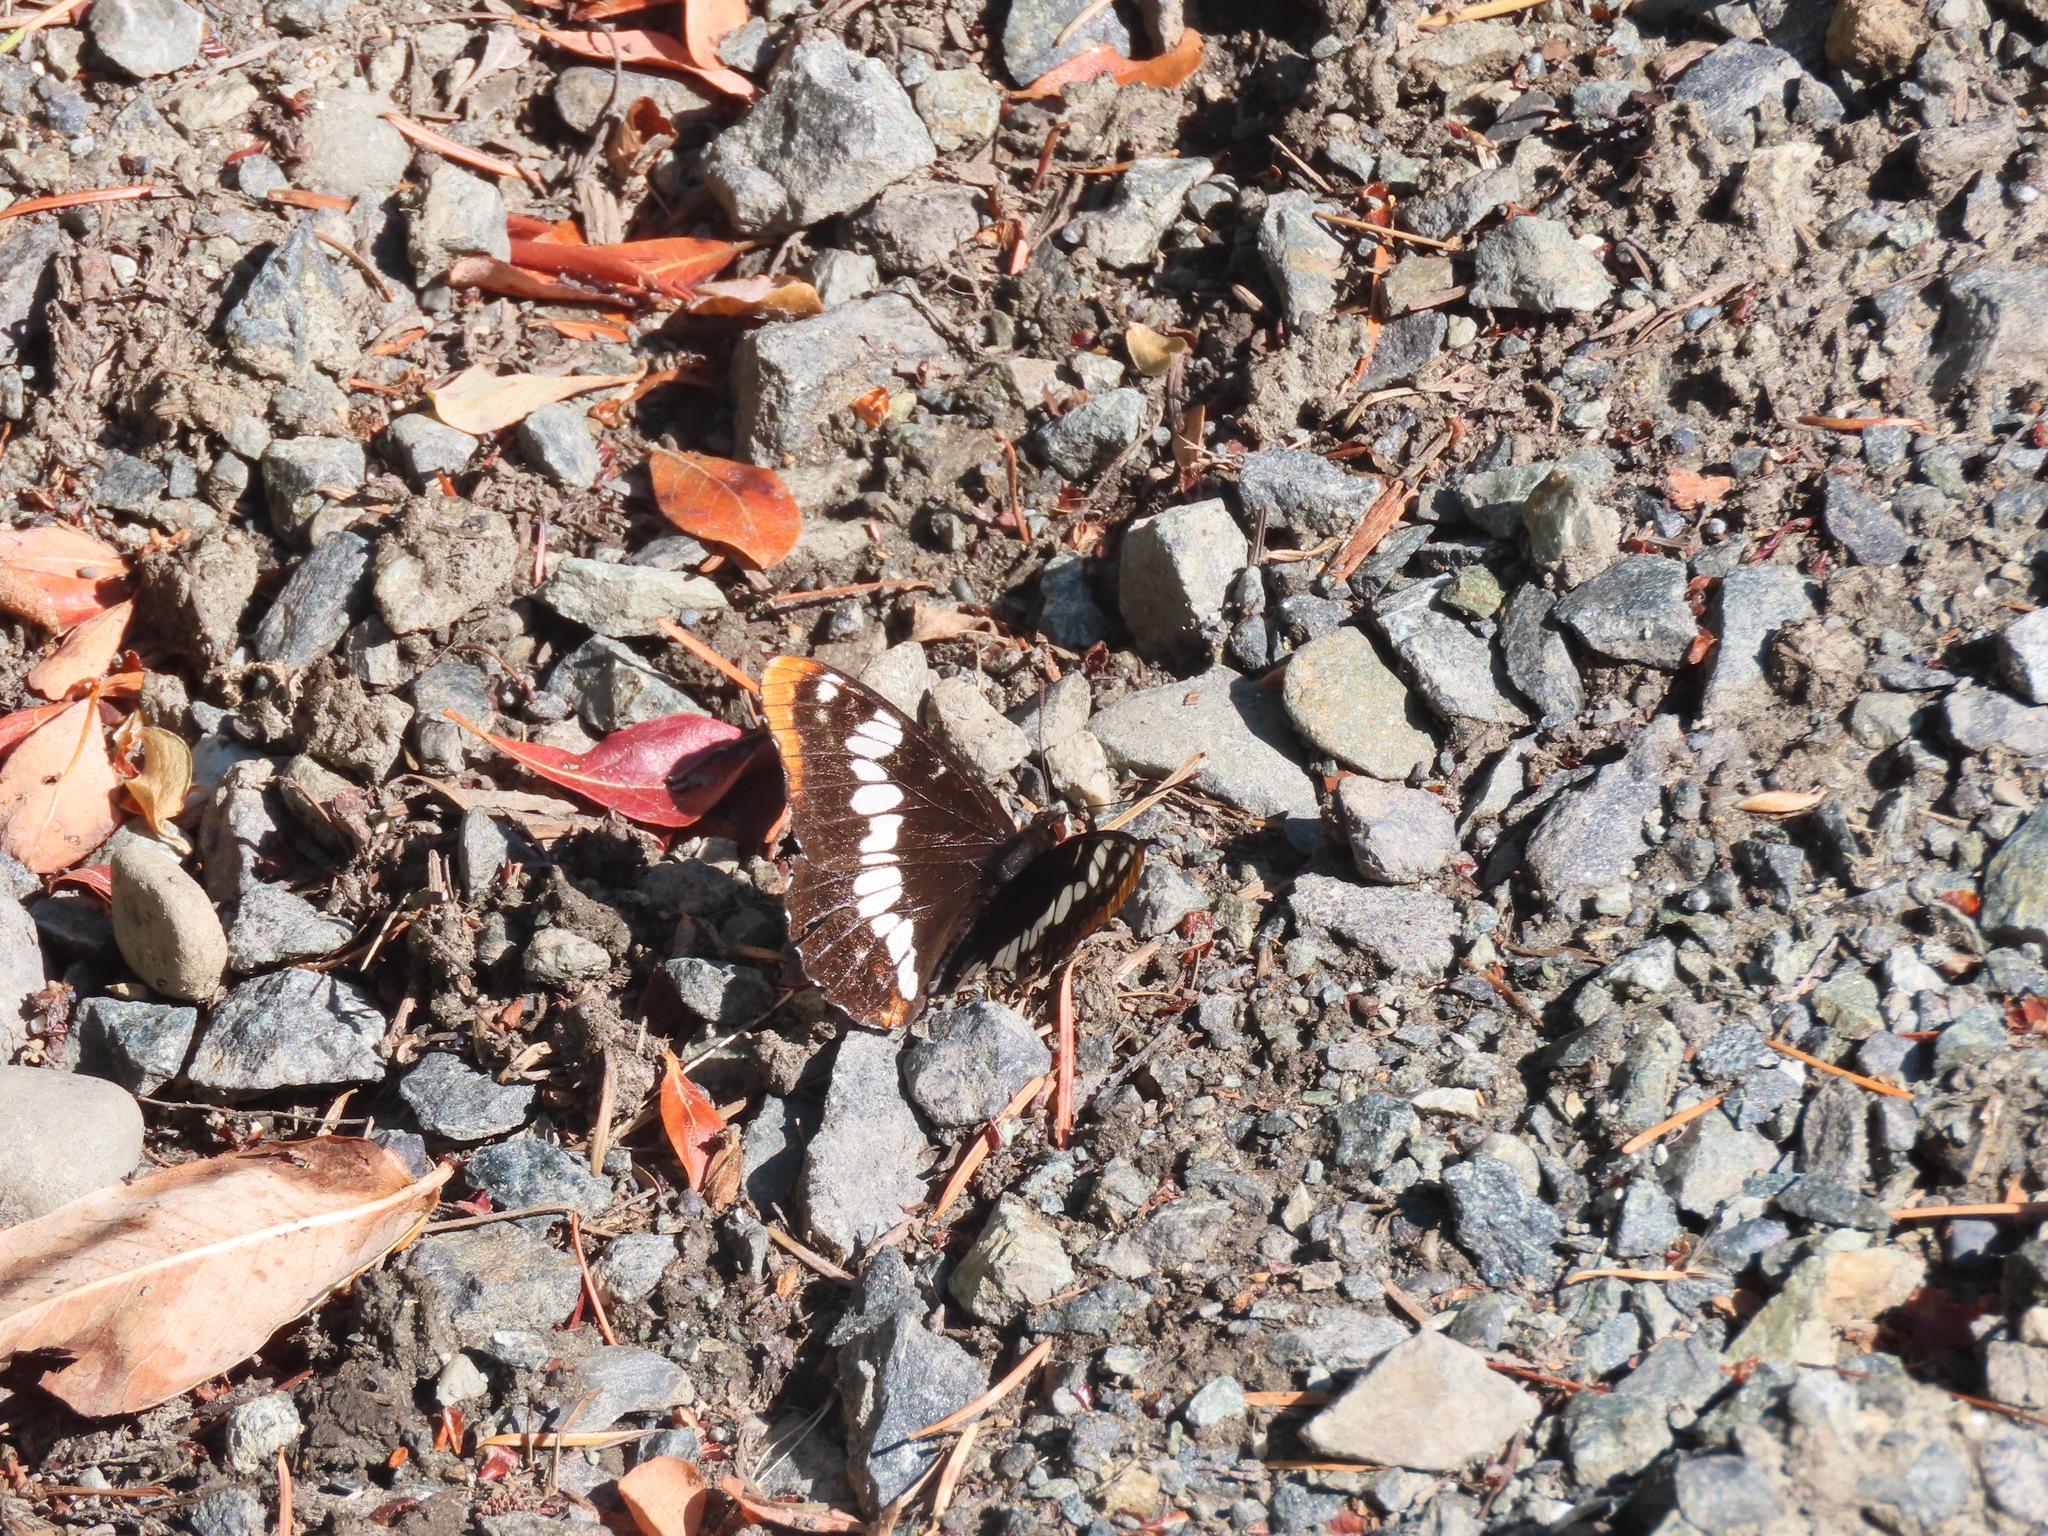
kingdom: Animalia
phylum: Arthropoda
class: Insecta
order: Lepidoptera
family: Nymphalidae
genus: Limenitis
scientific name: Limenitis lorquini
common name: Lorquin's admiral
